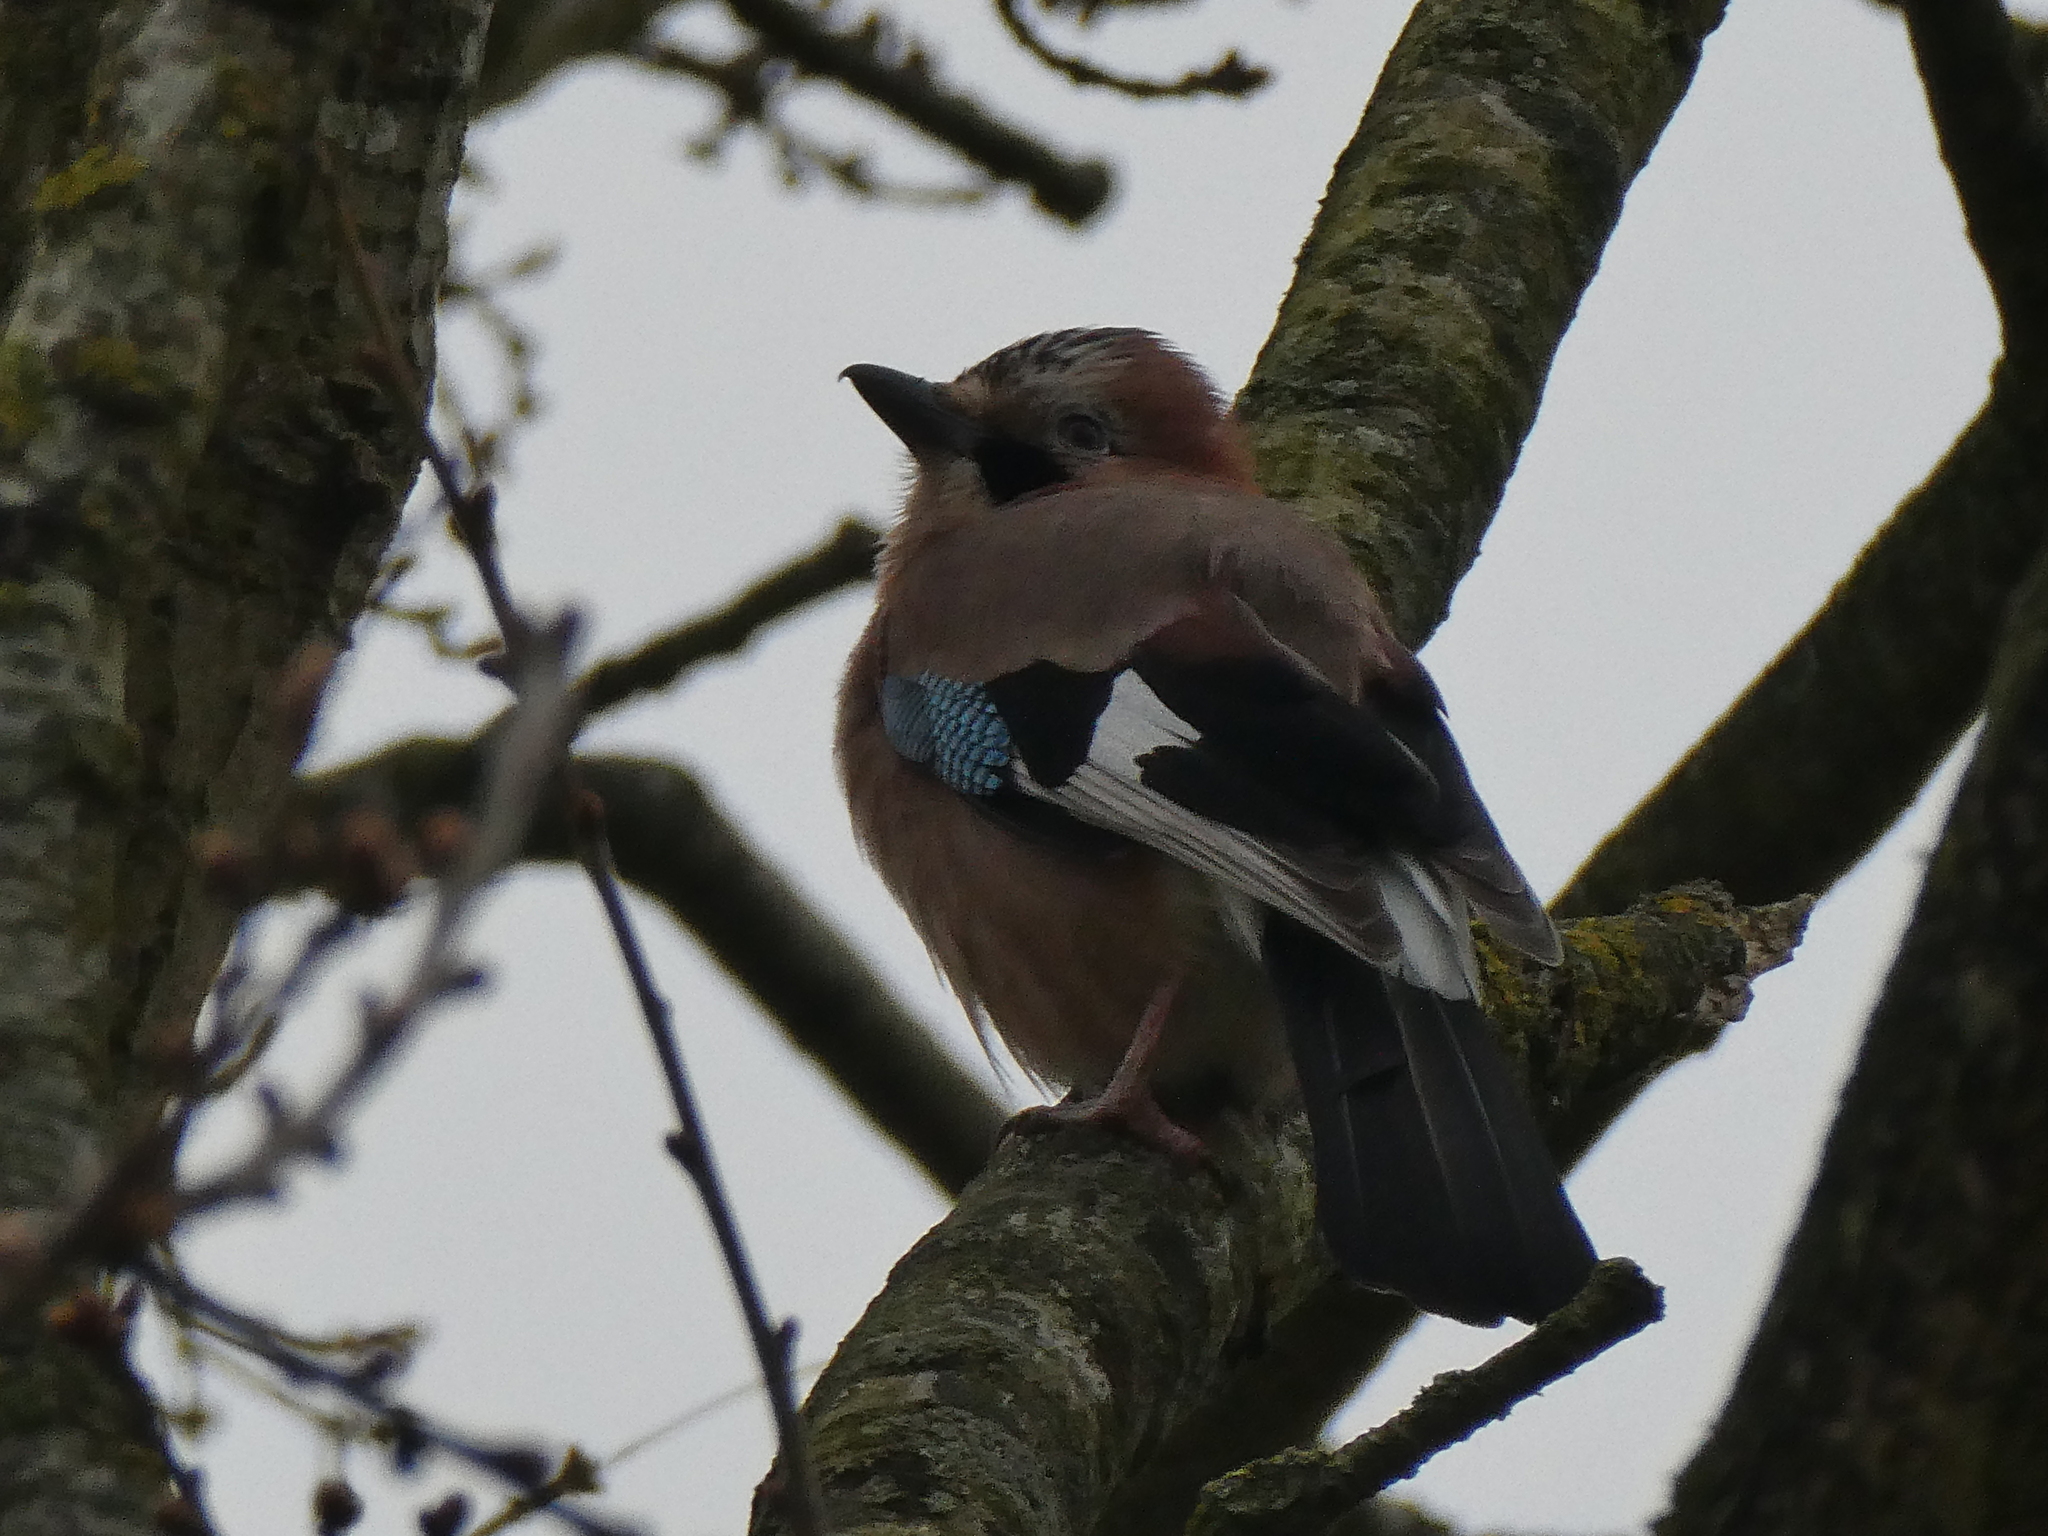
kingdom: Animalia
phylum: Chordata
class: Aves
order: Passeriformes
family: Corvidae
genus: Garrulus
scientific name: Garrulus glandarius
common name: Eurasian jay
